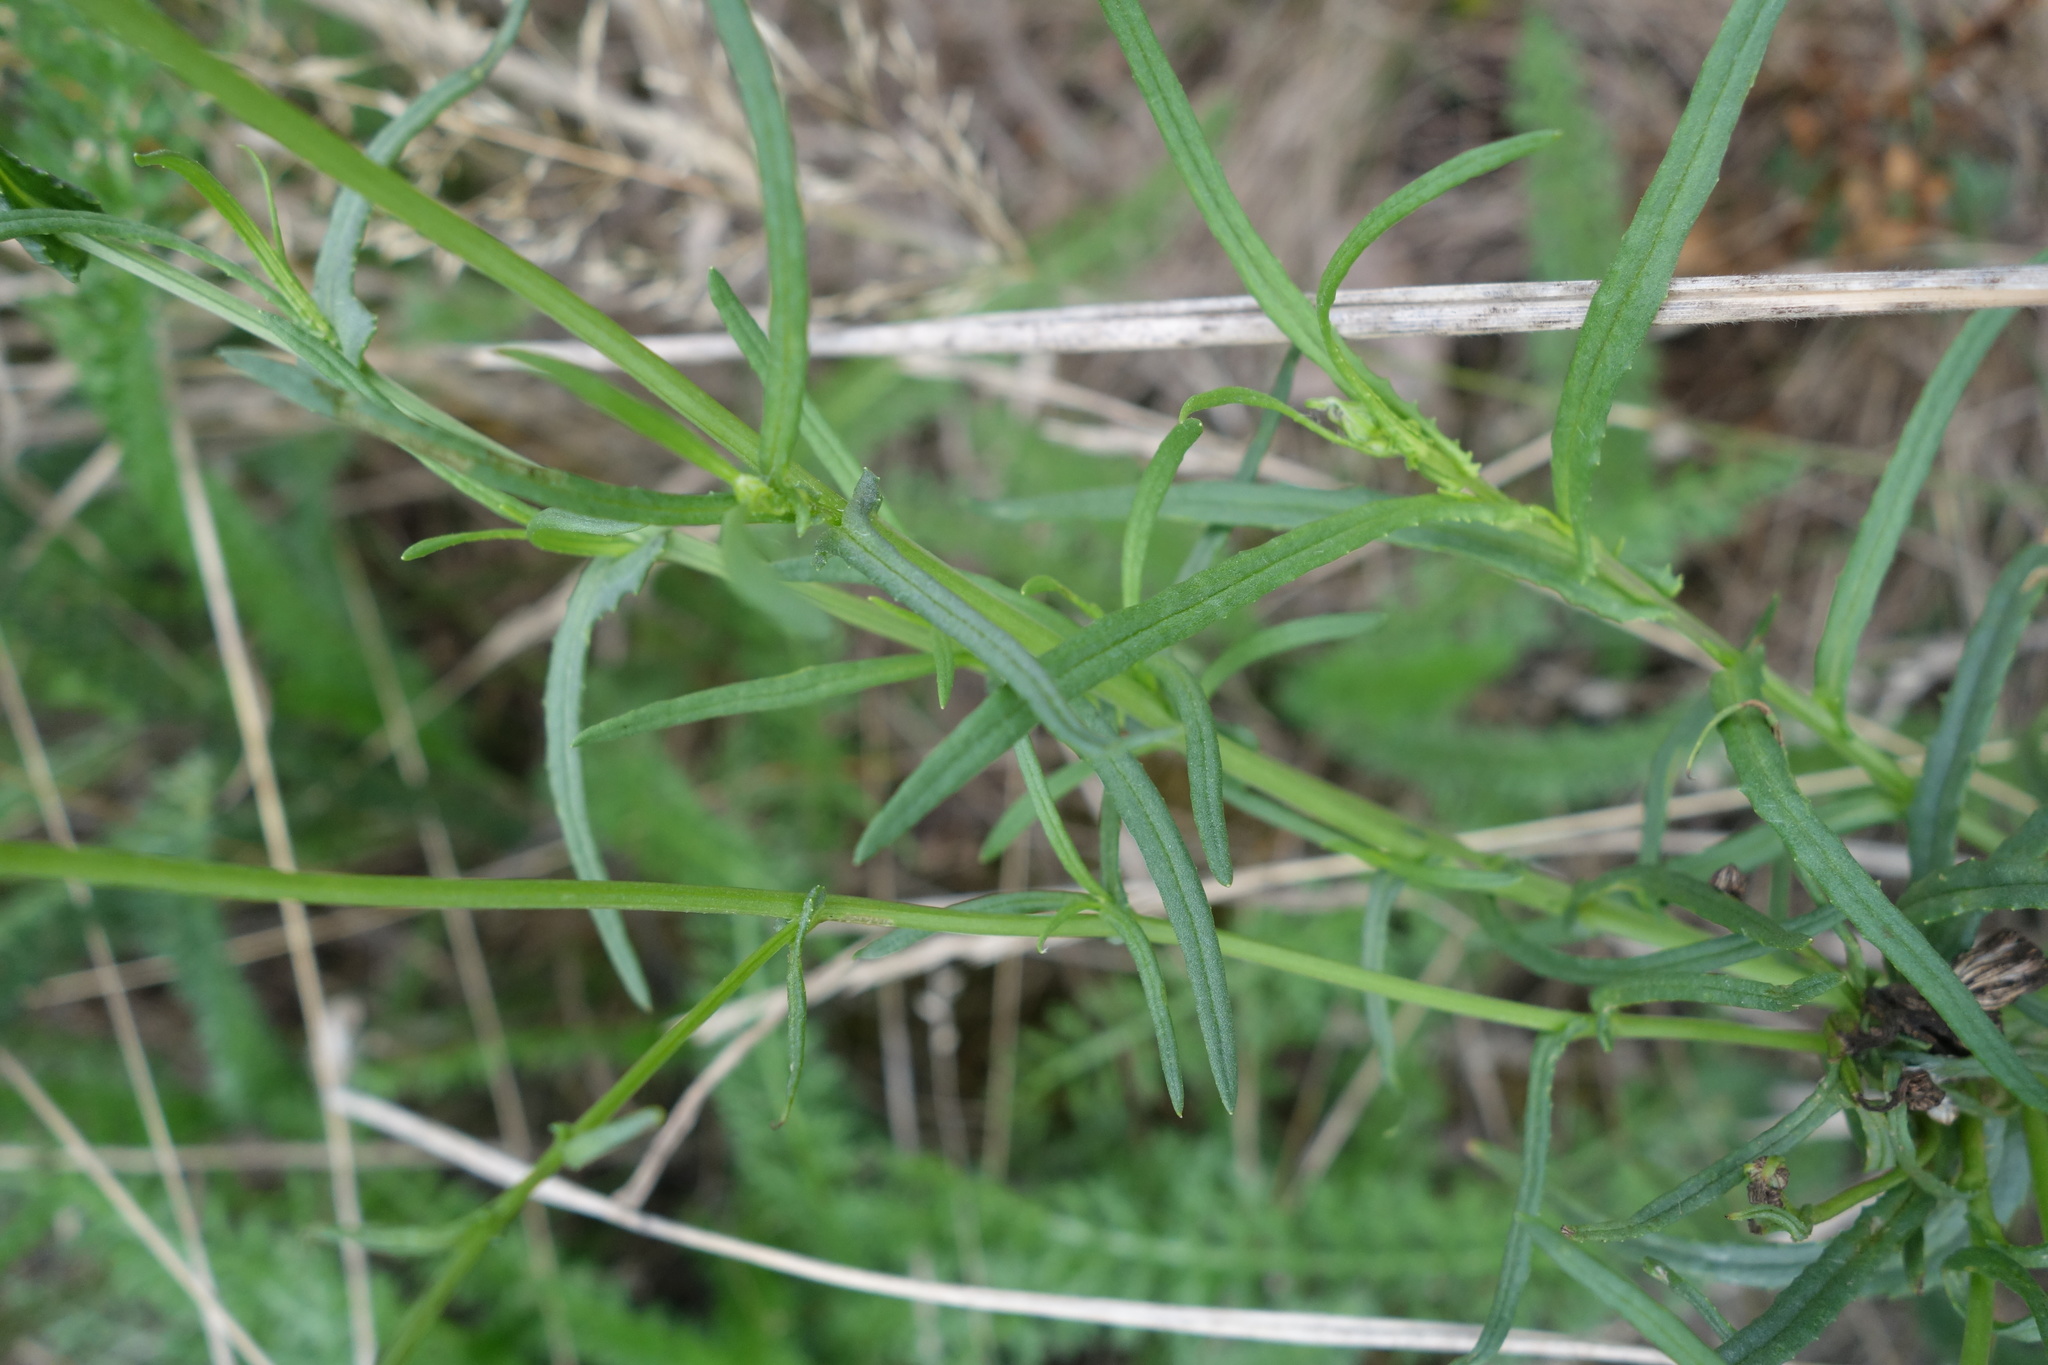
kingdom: Plantae
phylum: Tracheophyta
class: Magnoliopsida
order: Asterales
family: Asteraceae
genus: Senecio
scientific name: Senecio inaequidens
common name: Narrow-leaved ragwort
